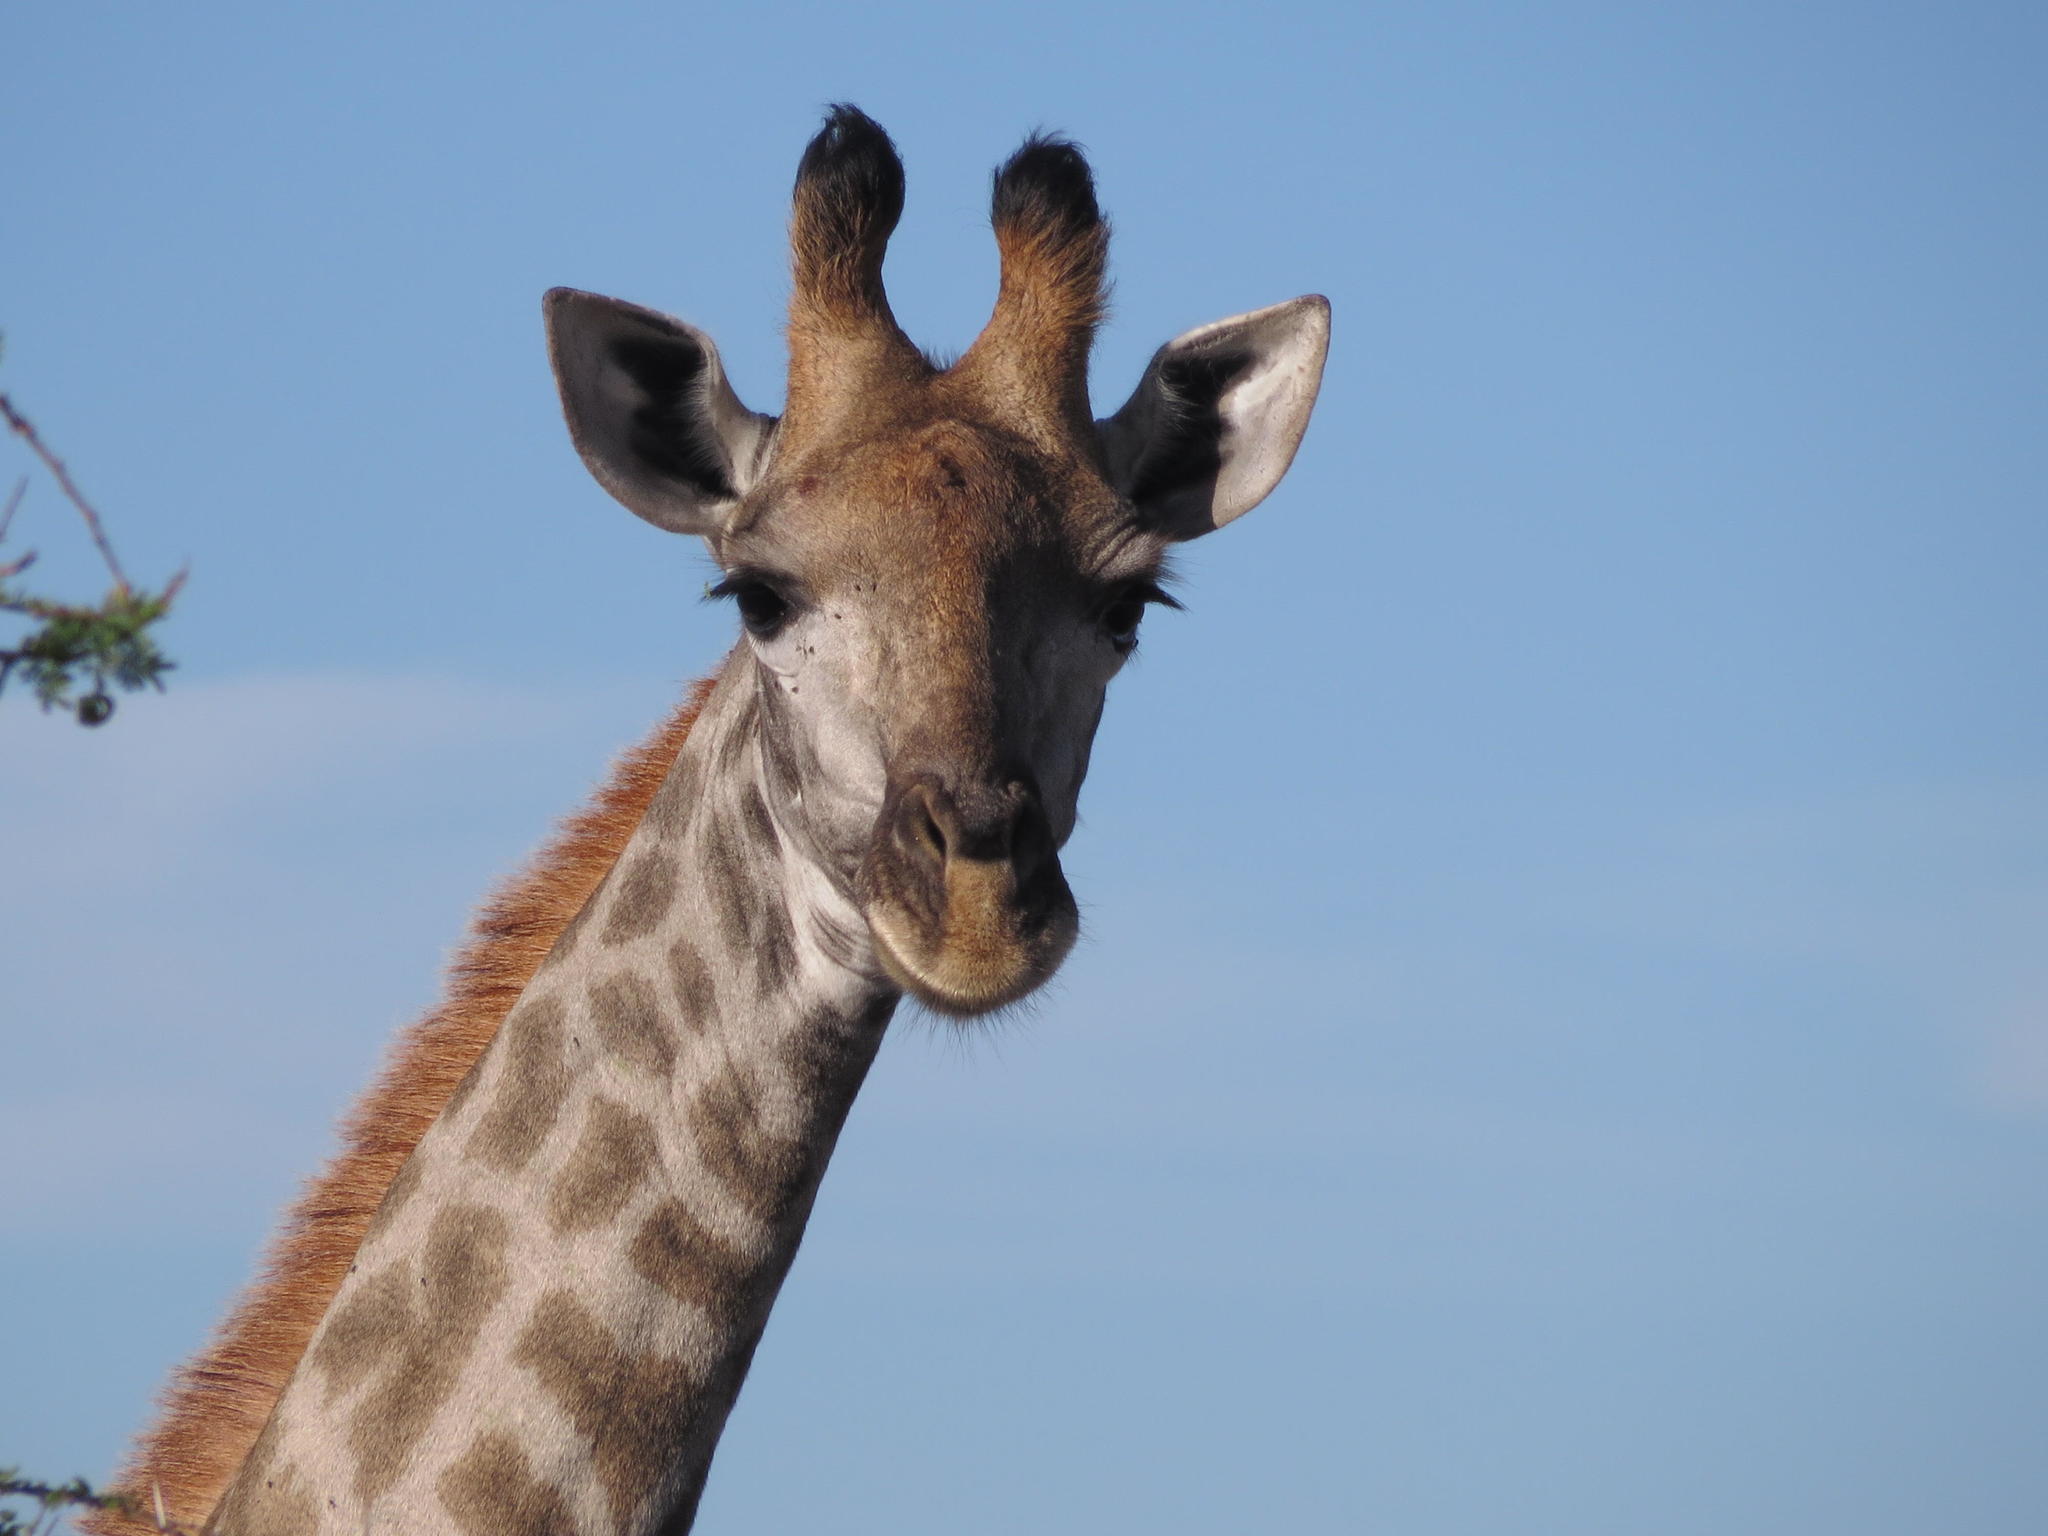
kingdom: Animalia
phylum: Chordata
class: Mammalia
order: Artiodactyla
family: Giraffidae
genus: Giraffa
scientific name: Giraffa giraffa
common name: Southern giraffe
